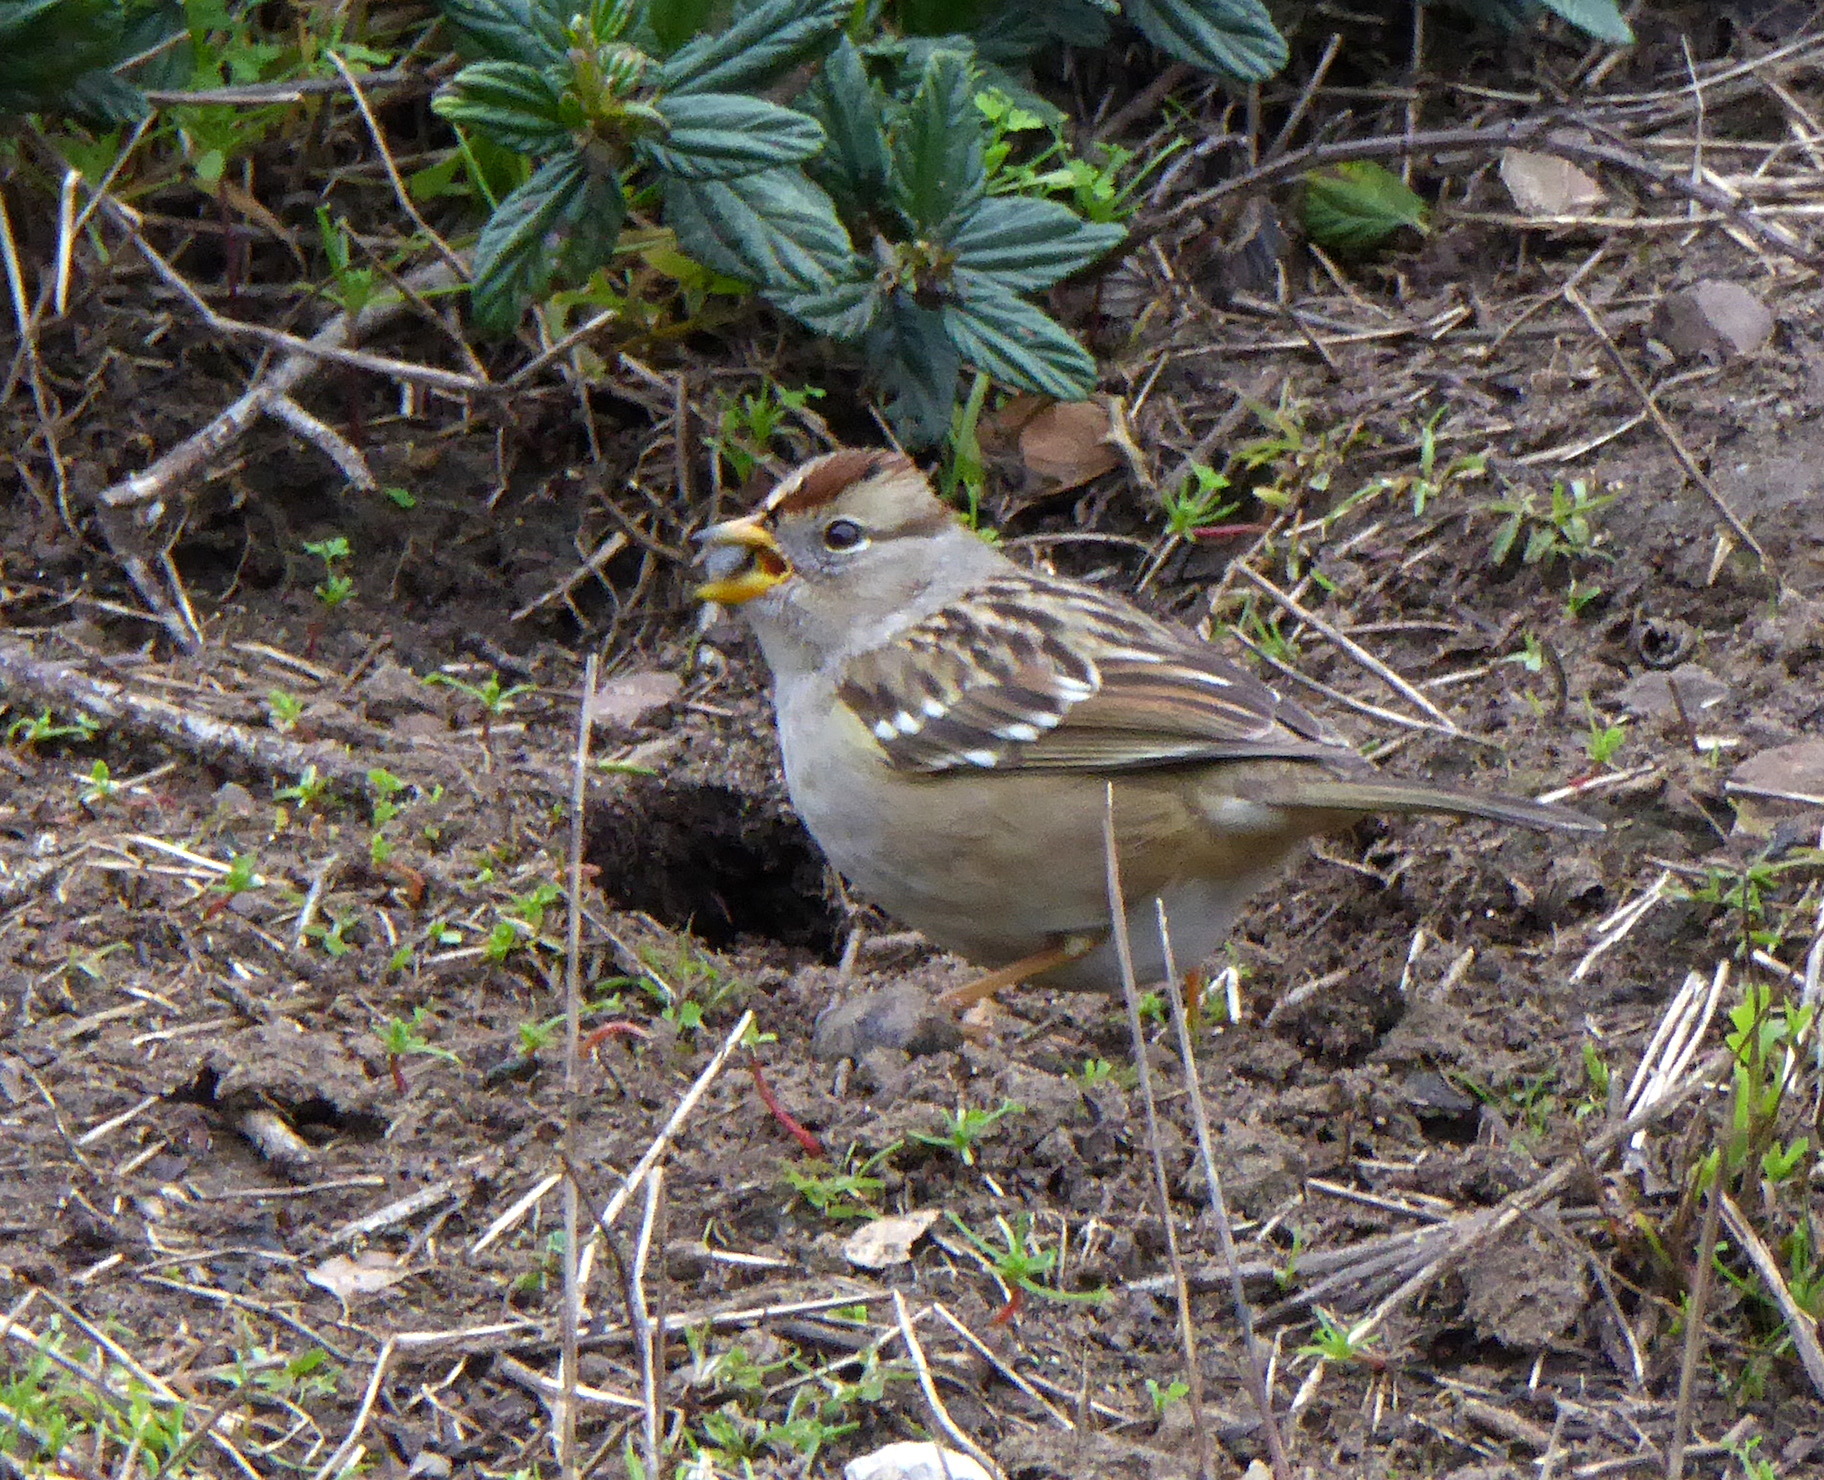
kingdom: Animalia
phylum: Chordata
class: Aves
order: Passeriformes
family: Passerellidae
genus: Zonotrichia
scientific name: Zonotrichia leucophrys
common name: White-crowned sparrow
